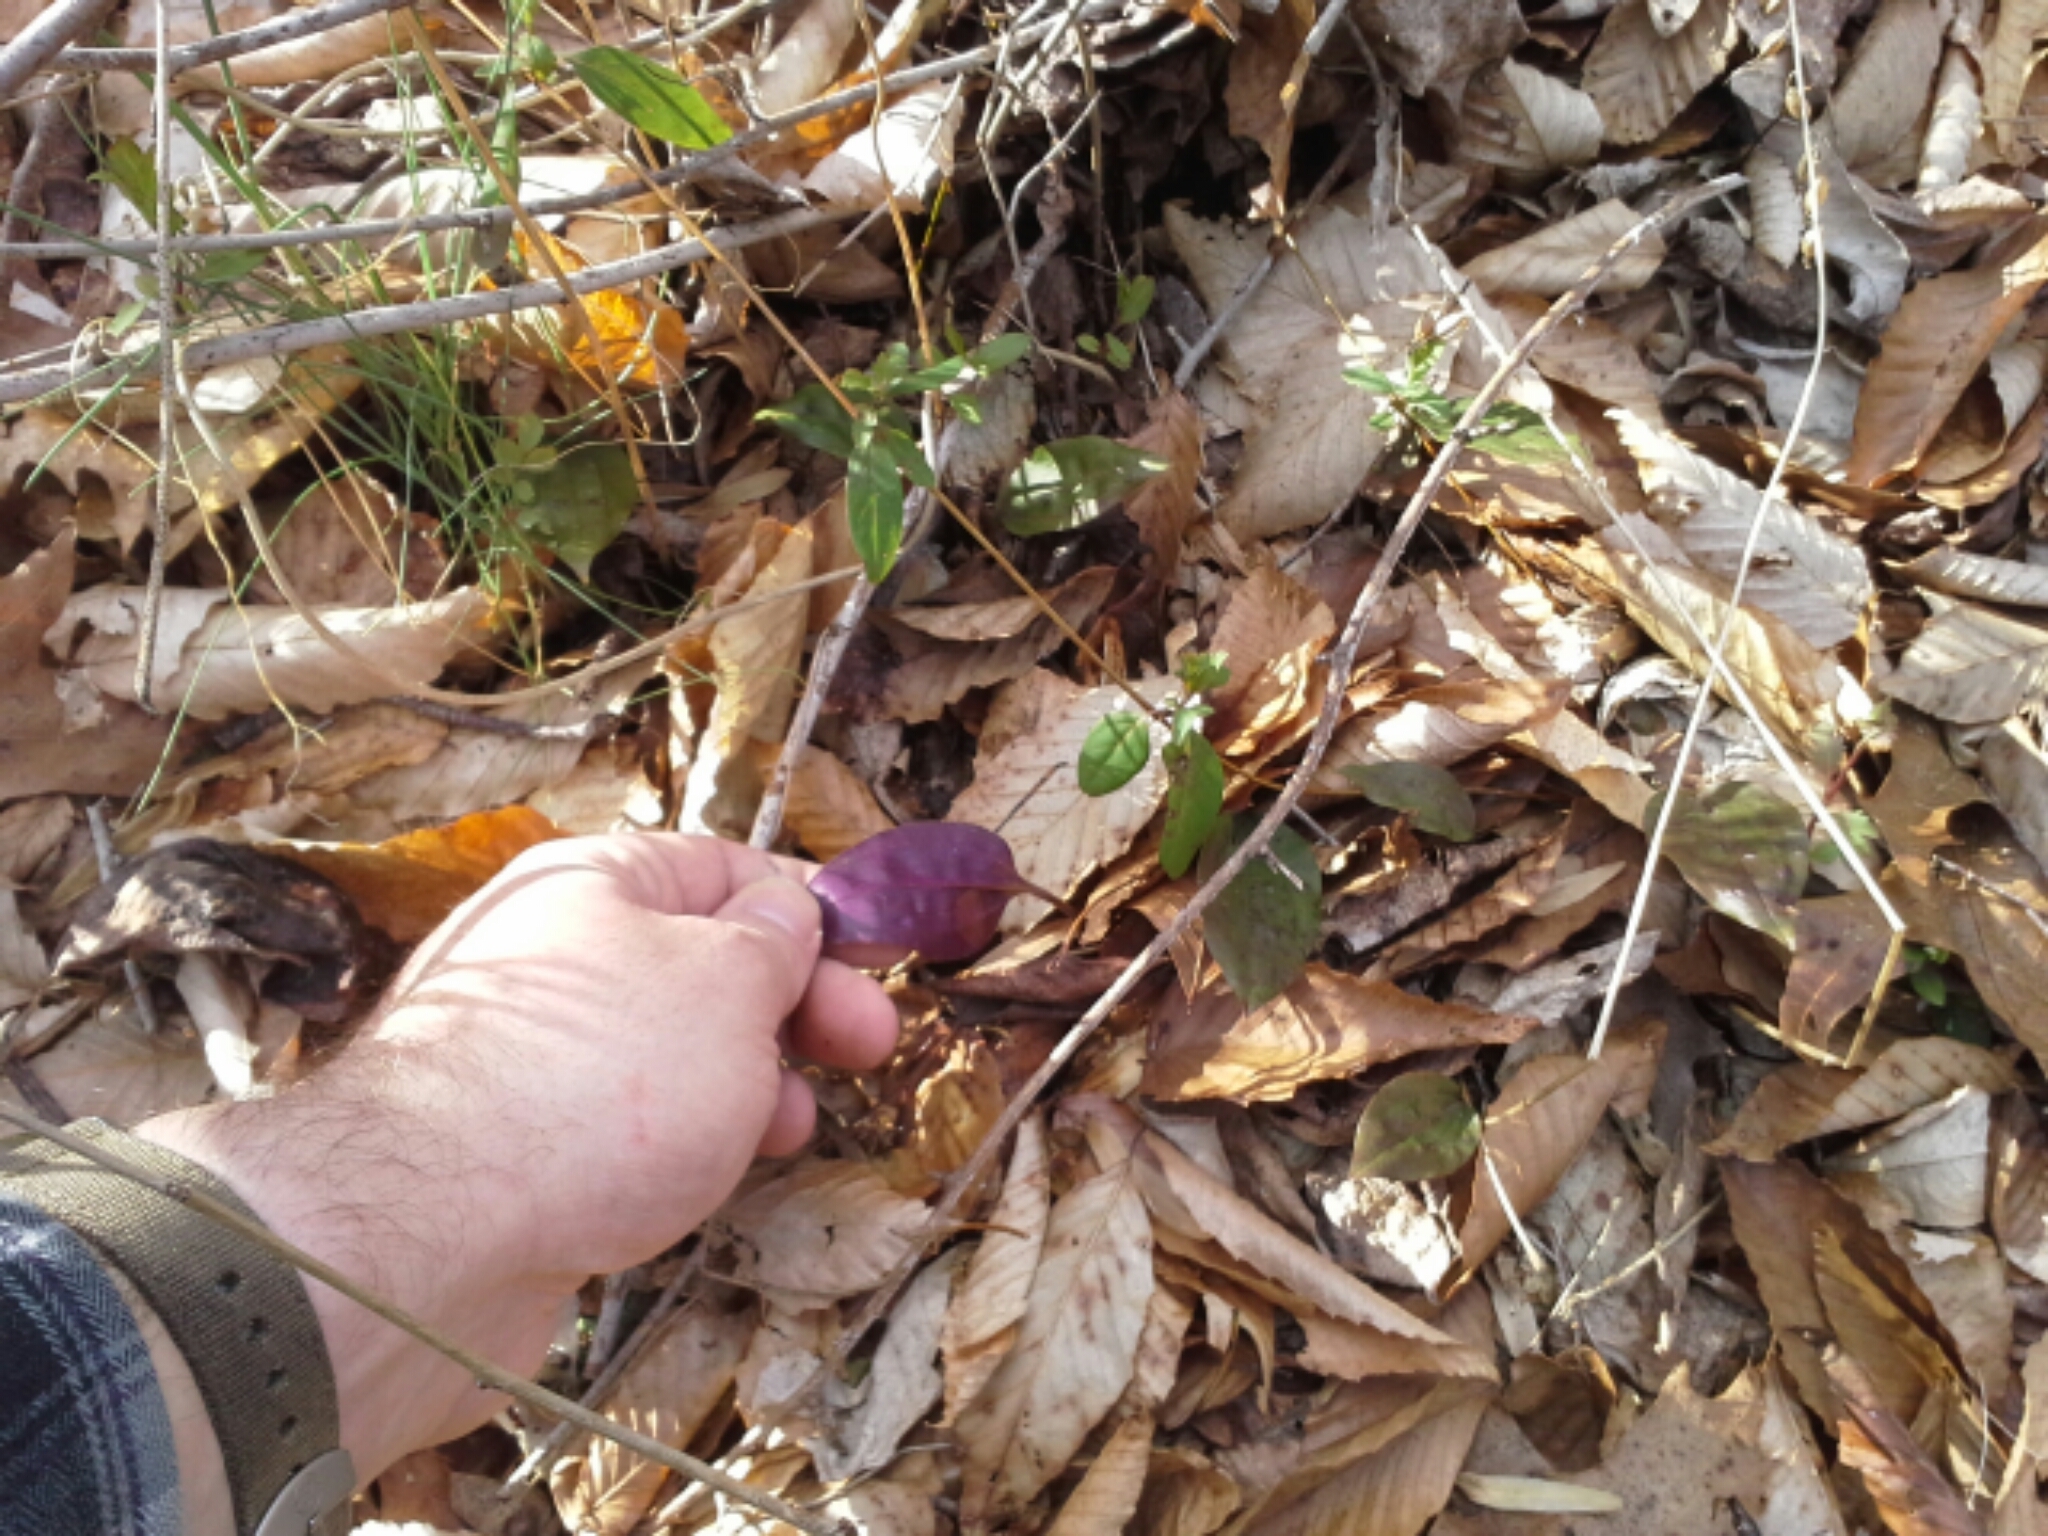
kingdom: Plantae
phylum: Tracheophyta
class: Liliopsida
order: Asparagales
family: Orchidaceae
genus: Tipularia
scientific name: Tipularia discolor
